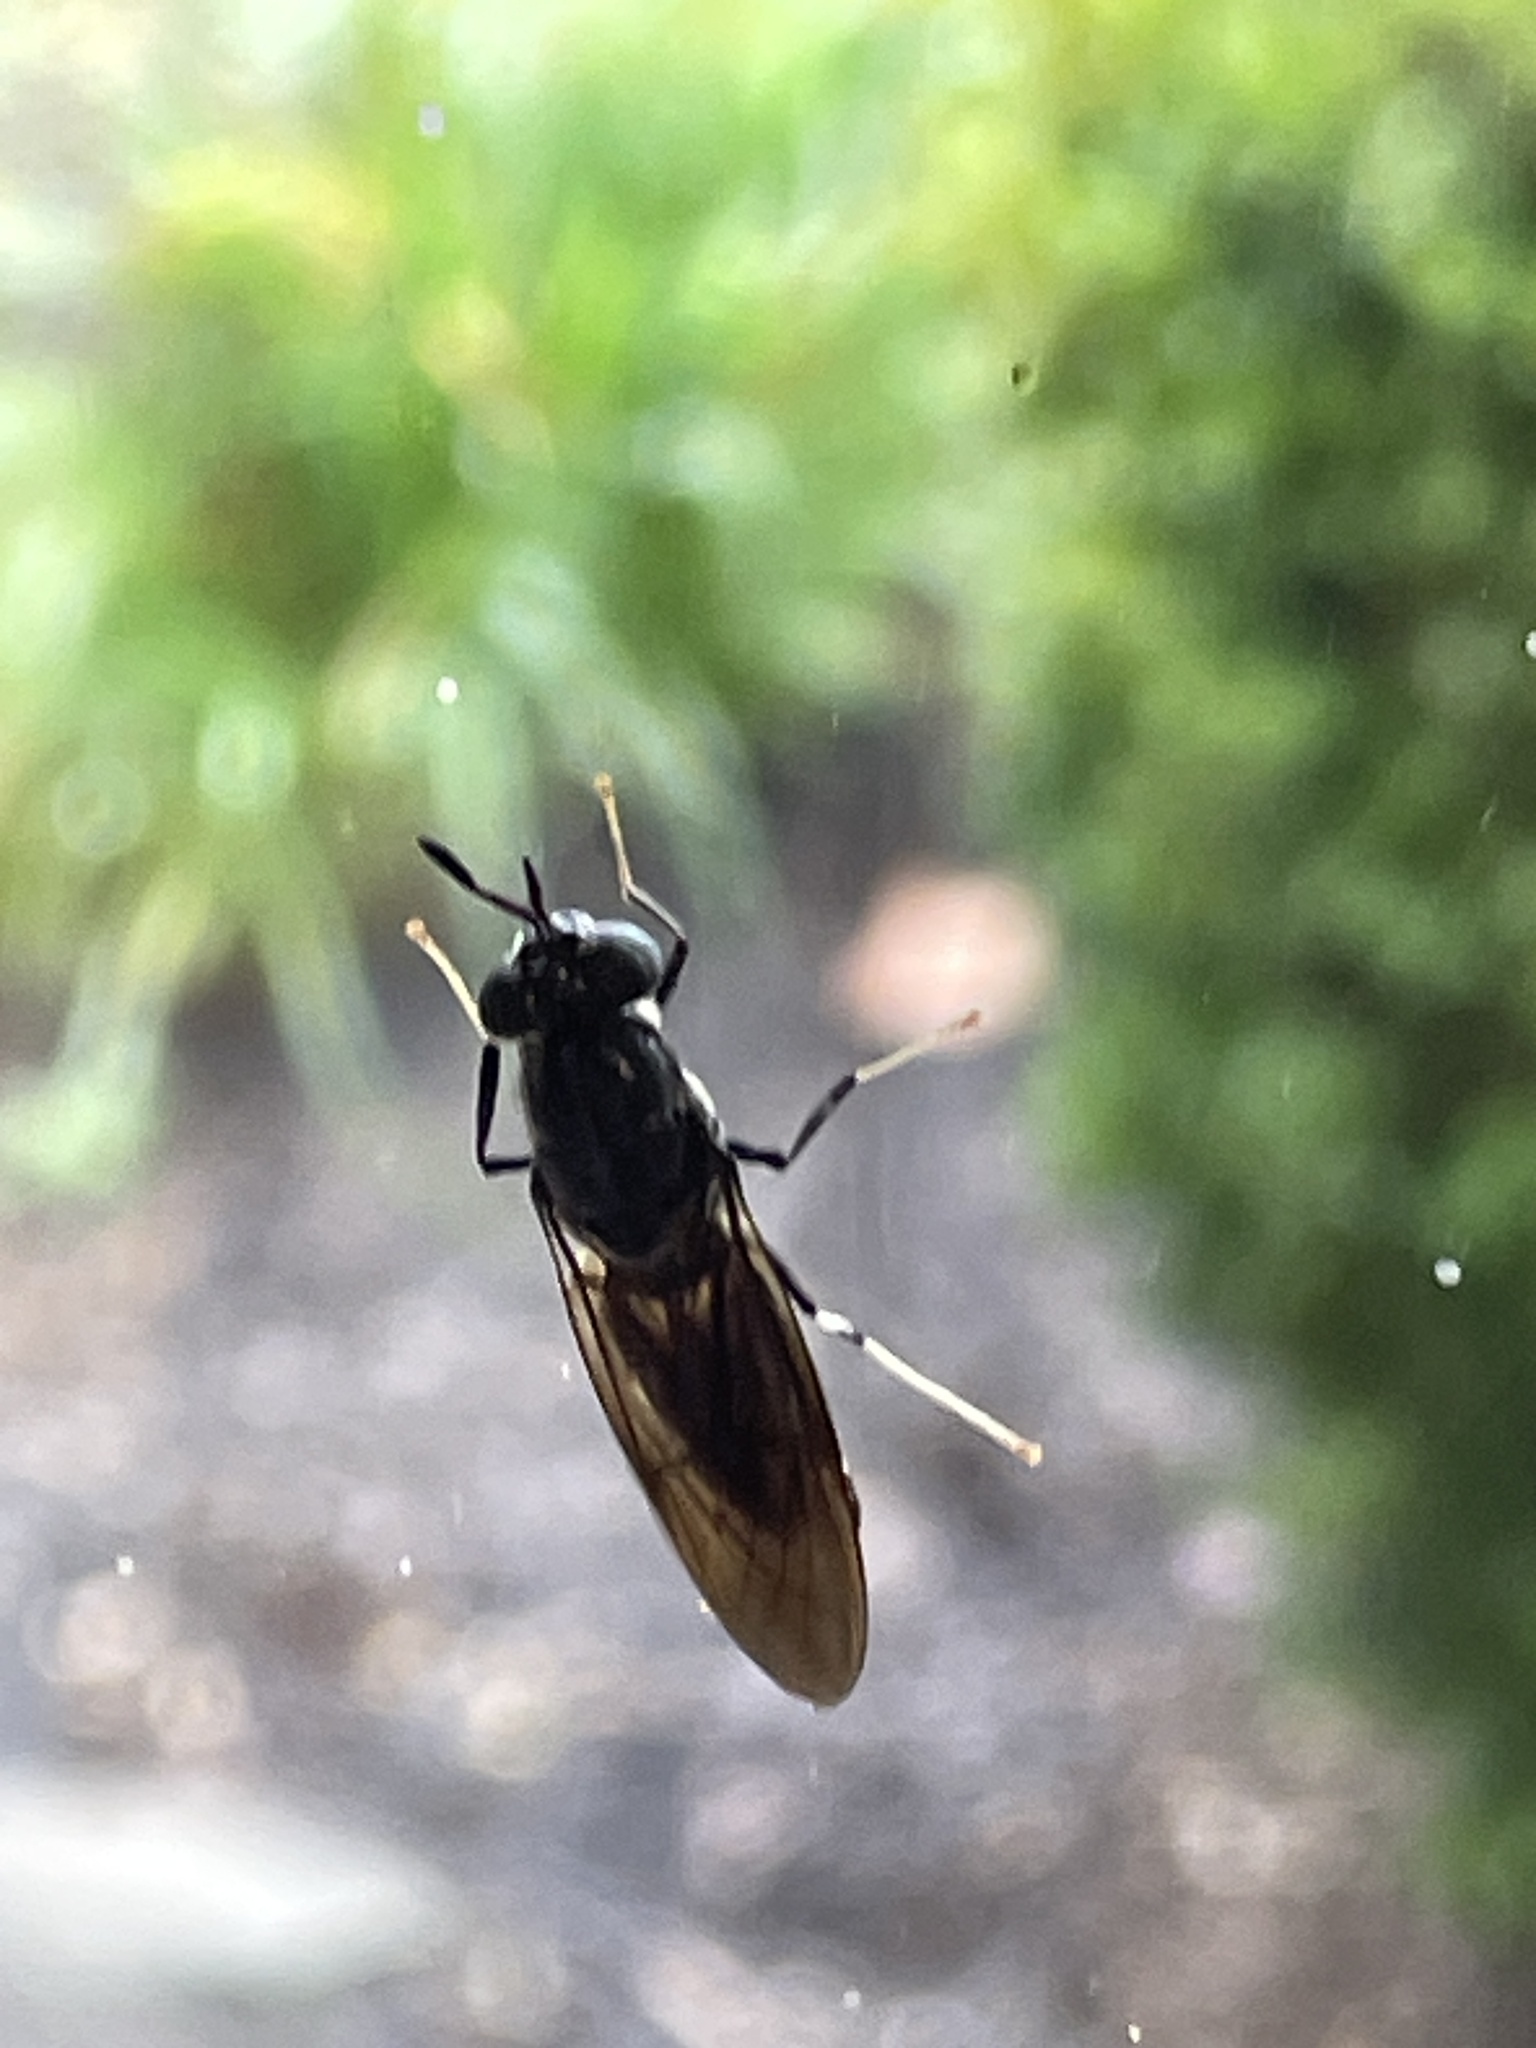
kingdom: Animalia
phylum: Arthropoda
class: Insecta
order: Diptera
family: Stratiomyidae
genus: Hermetia
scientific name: Hermetia illucens
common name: Black soldier fly
